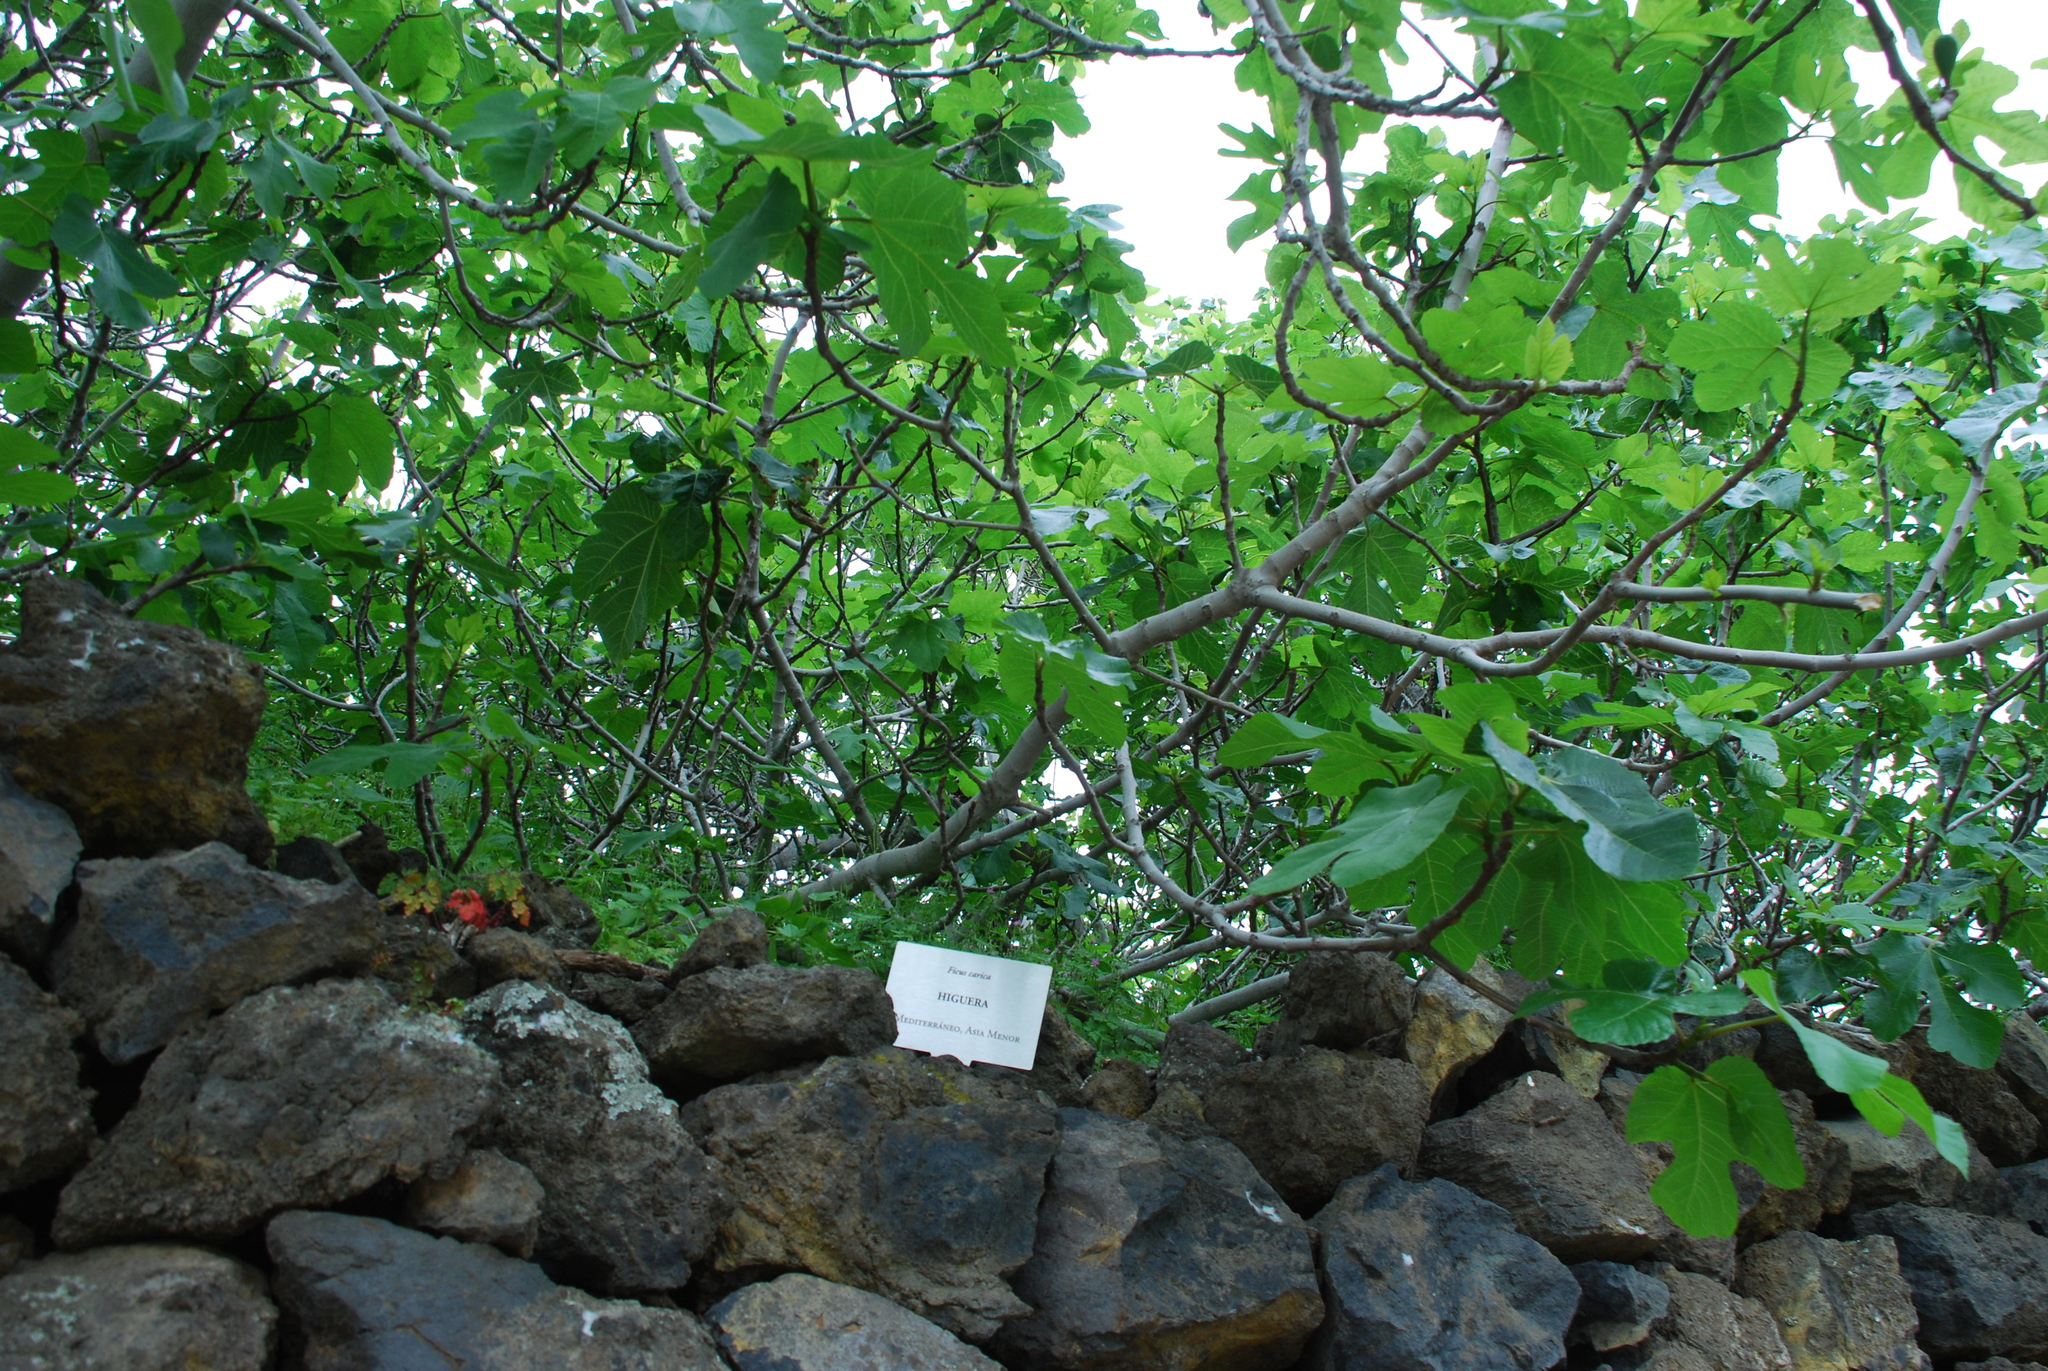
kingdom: Plantae
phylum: Tracheophyta
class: Magnoliopsida
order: Rosales
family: Moraceae
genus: Ficus
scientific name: Ficus carica
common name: Fig
